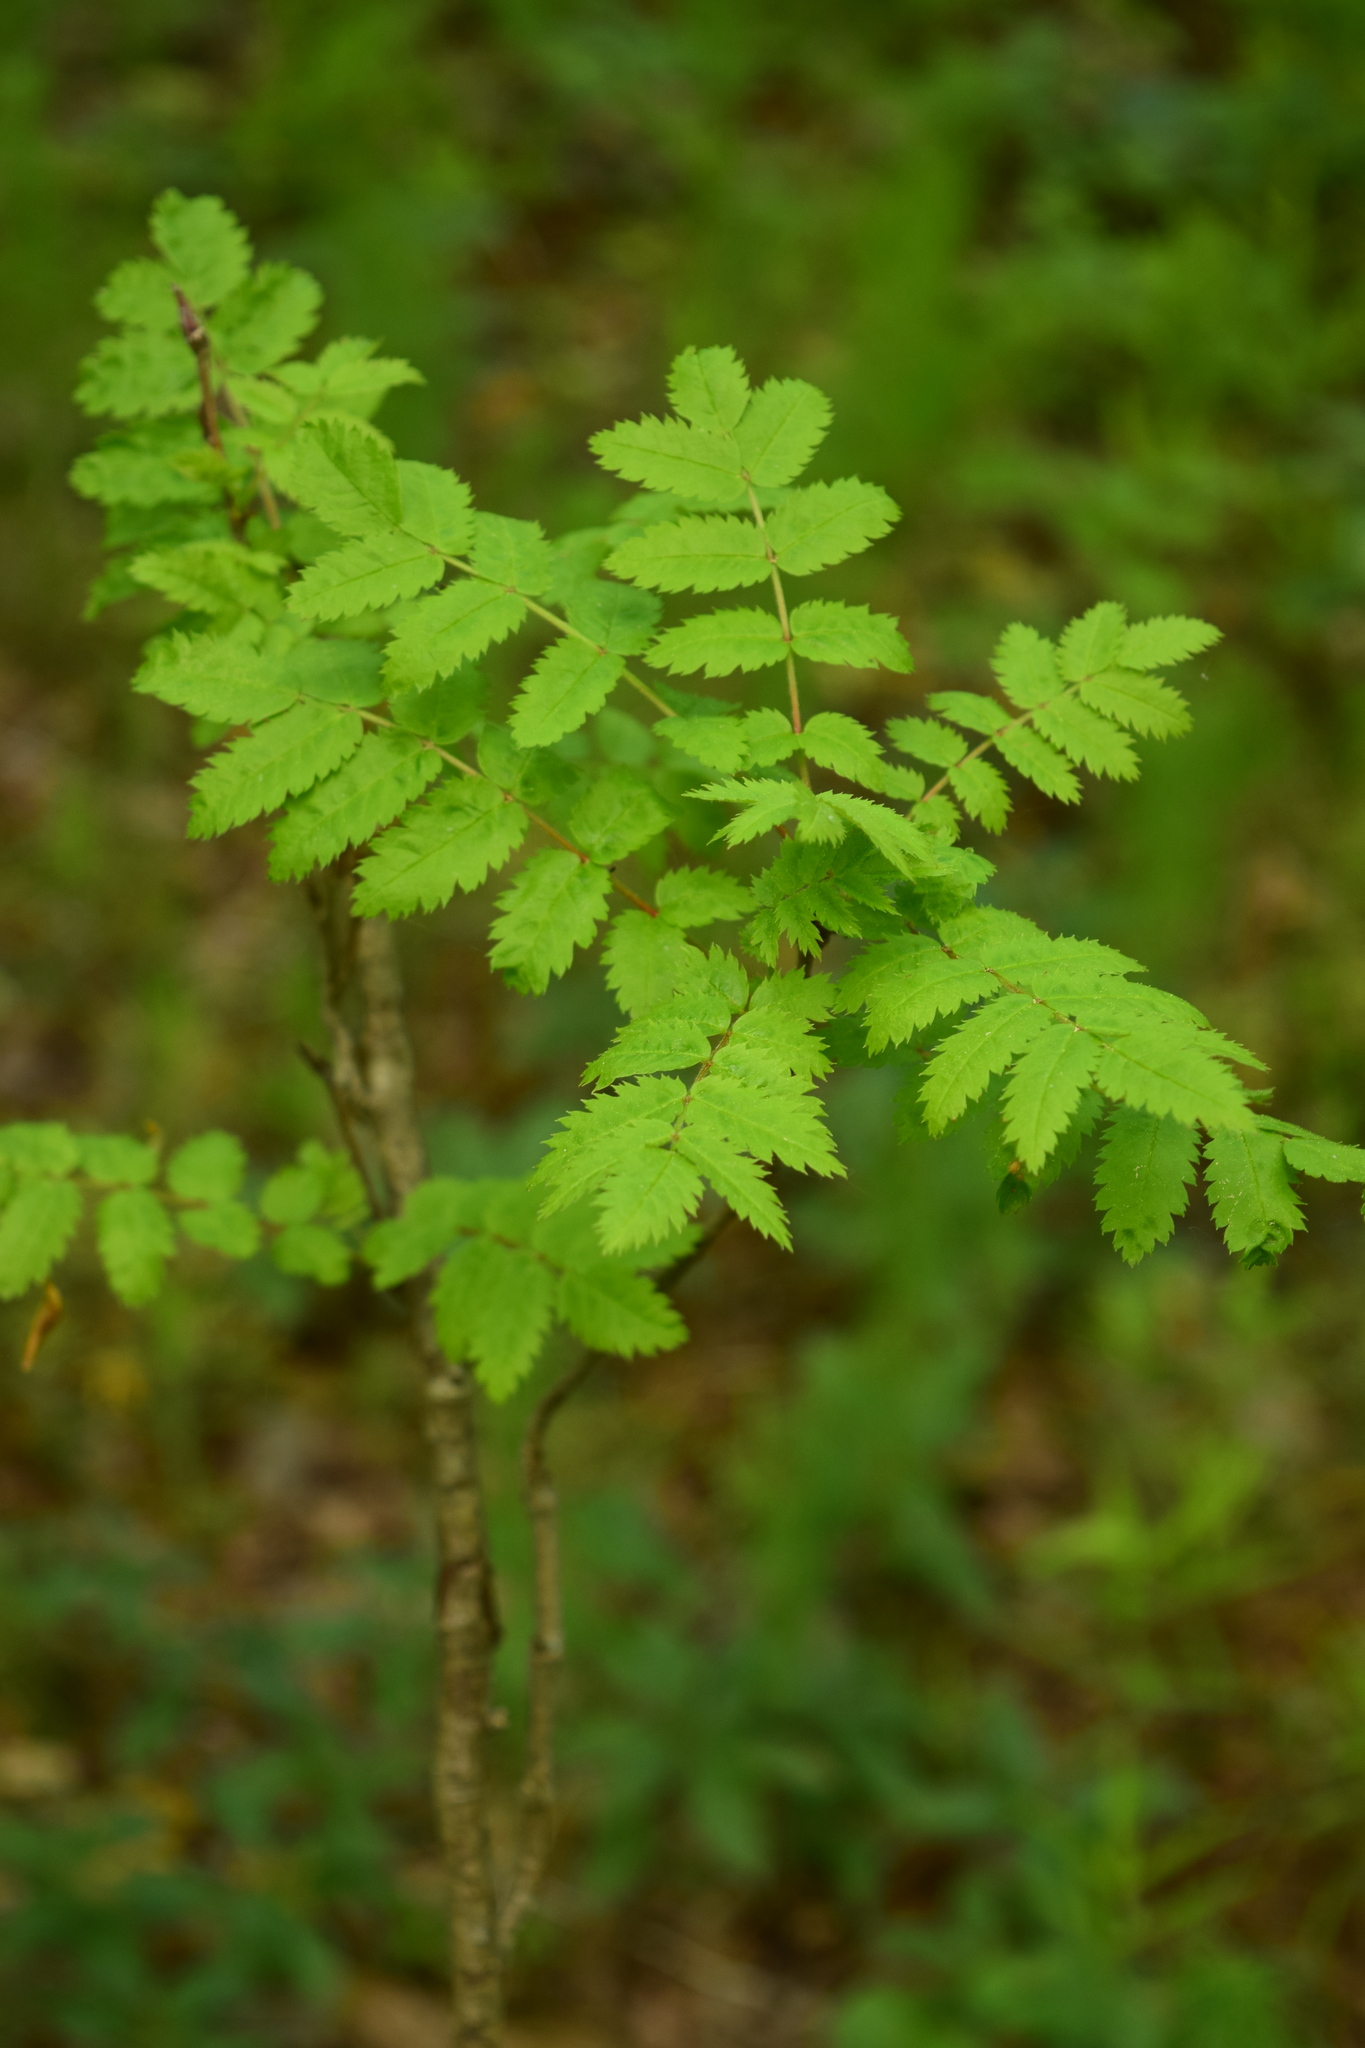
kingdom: Plantae
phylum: Tracheophyta
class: Magnoliopsida
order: Rosales
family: Rosaceae
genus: Sorbus
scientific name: Sorbus aucuparia
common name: Rowan
